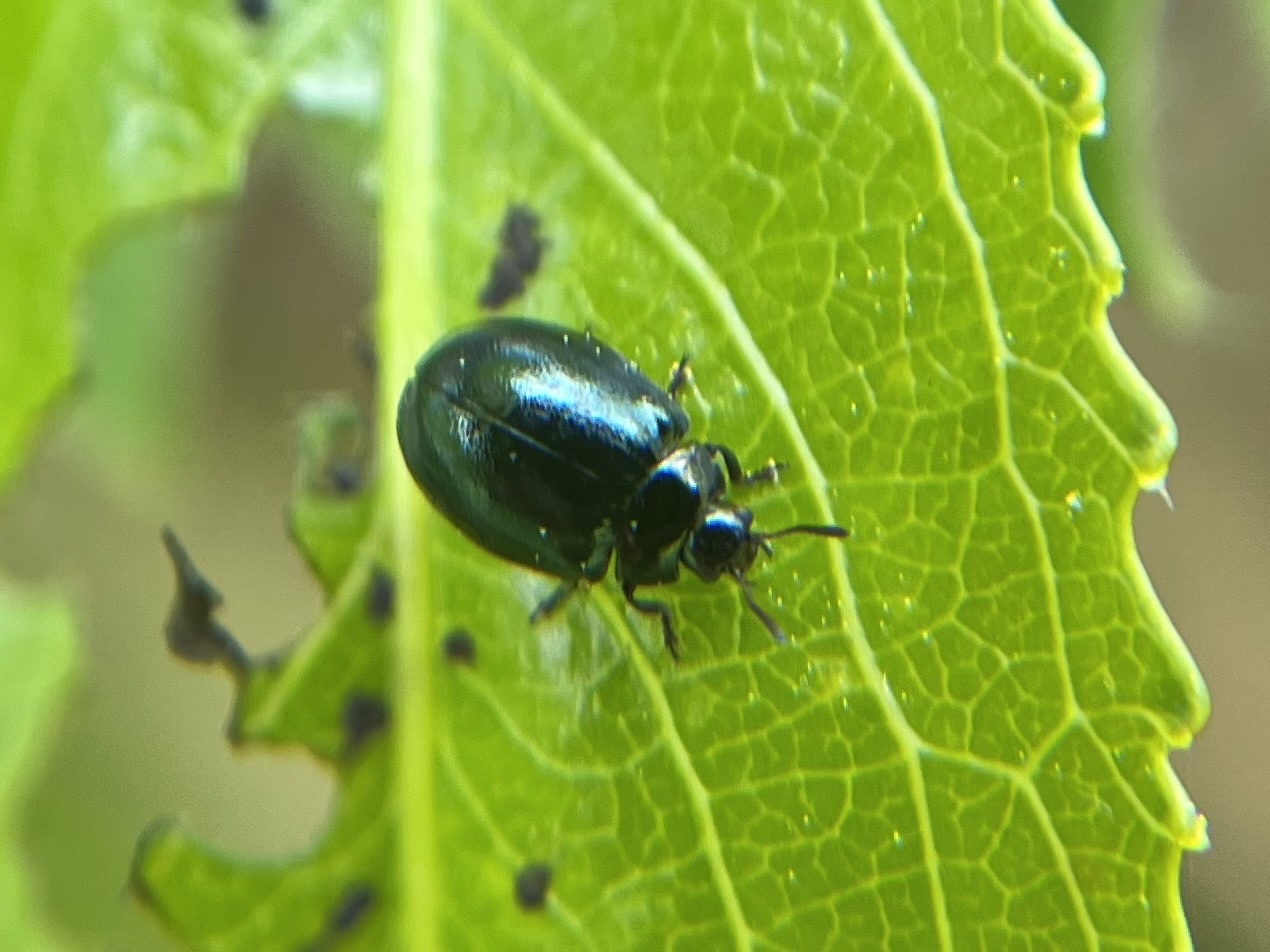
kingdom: Animalia
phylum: Arthropoda
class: Insecta
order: Coleoptera
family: Chrysomelidae
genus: Plagiodera
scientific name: Plagiodera versicolora
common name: Imported willow leaf beetle
